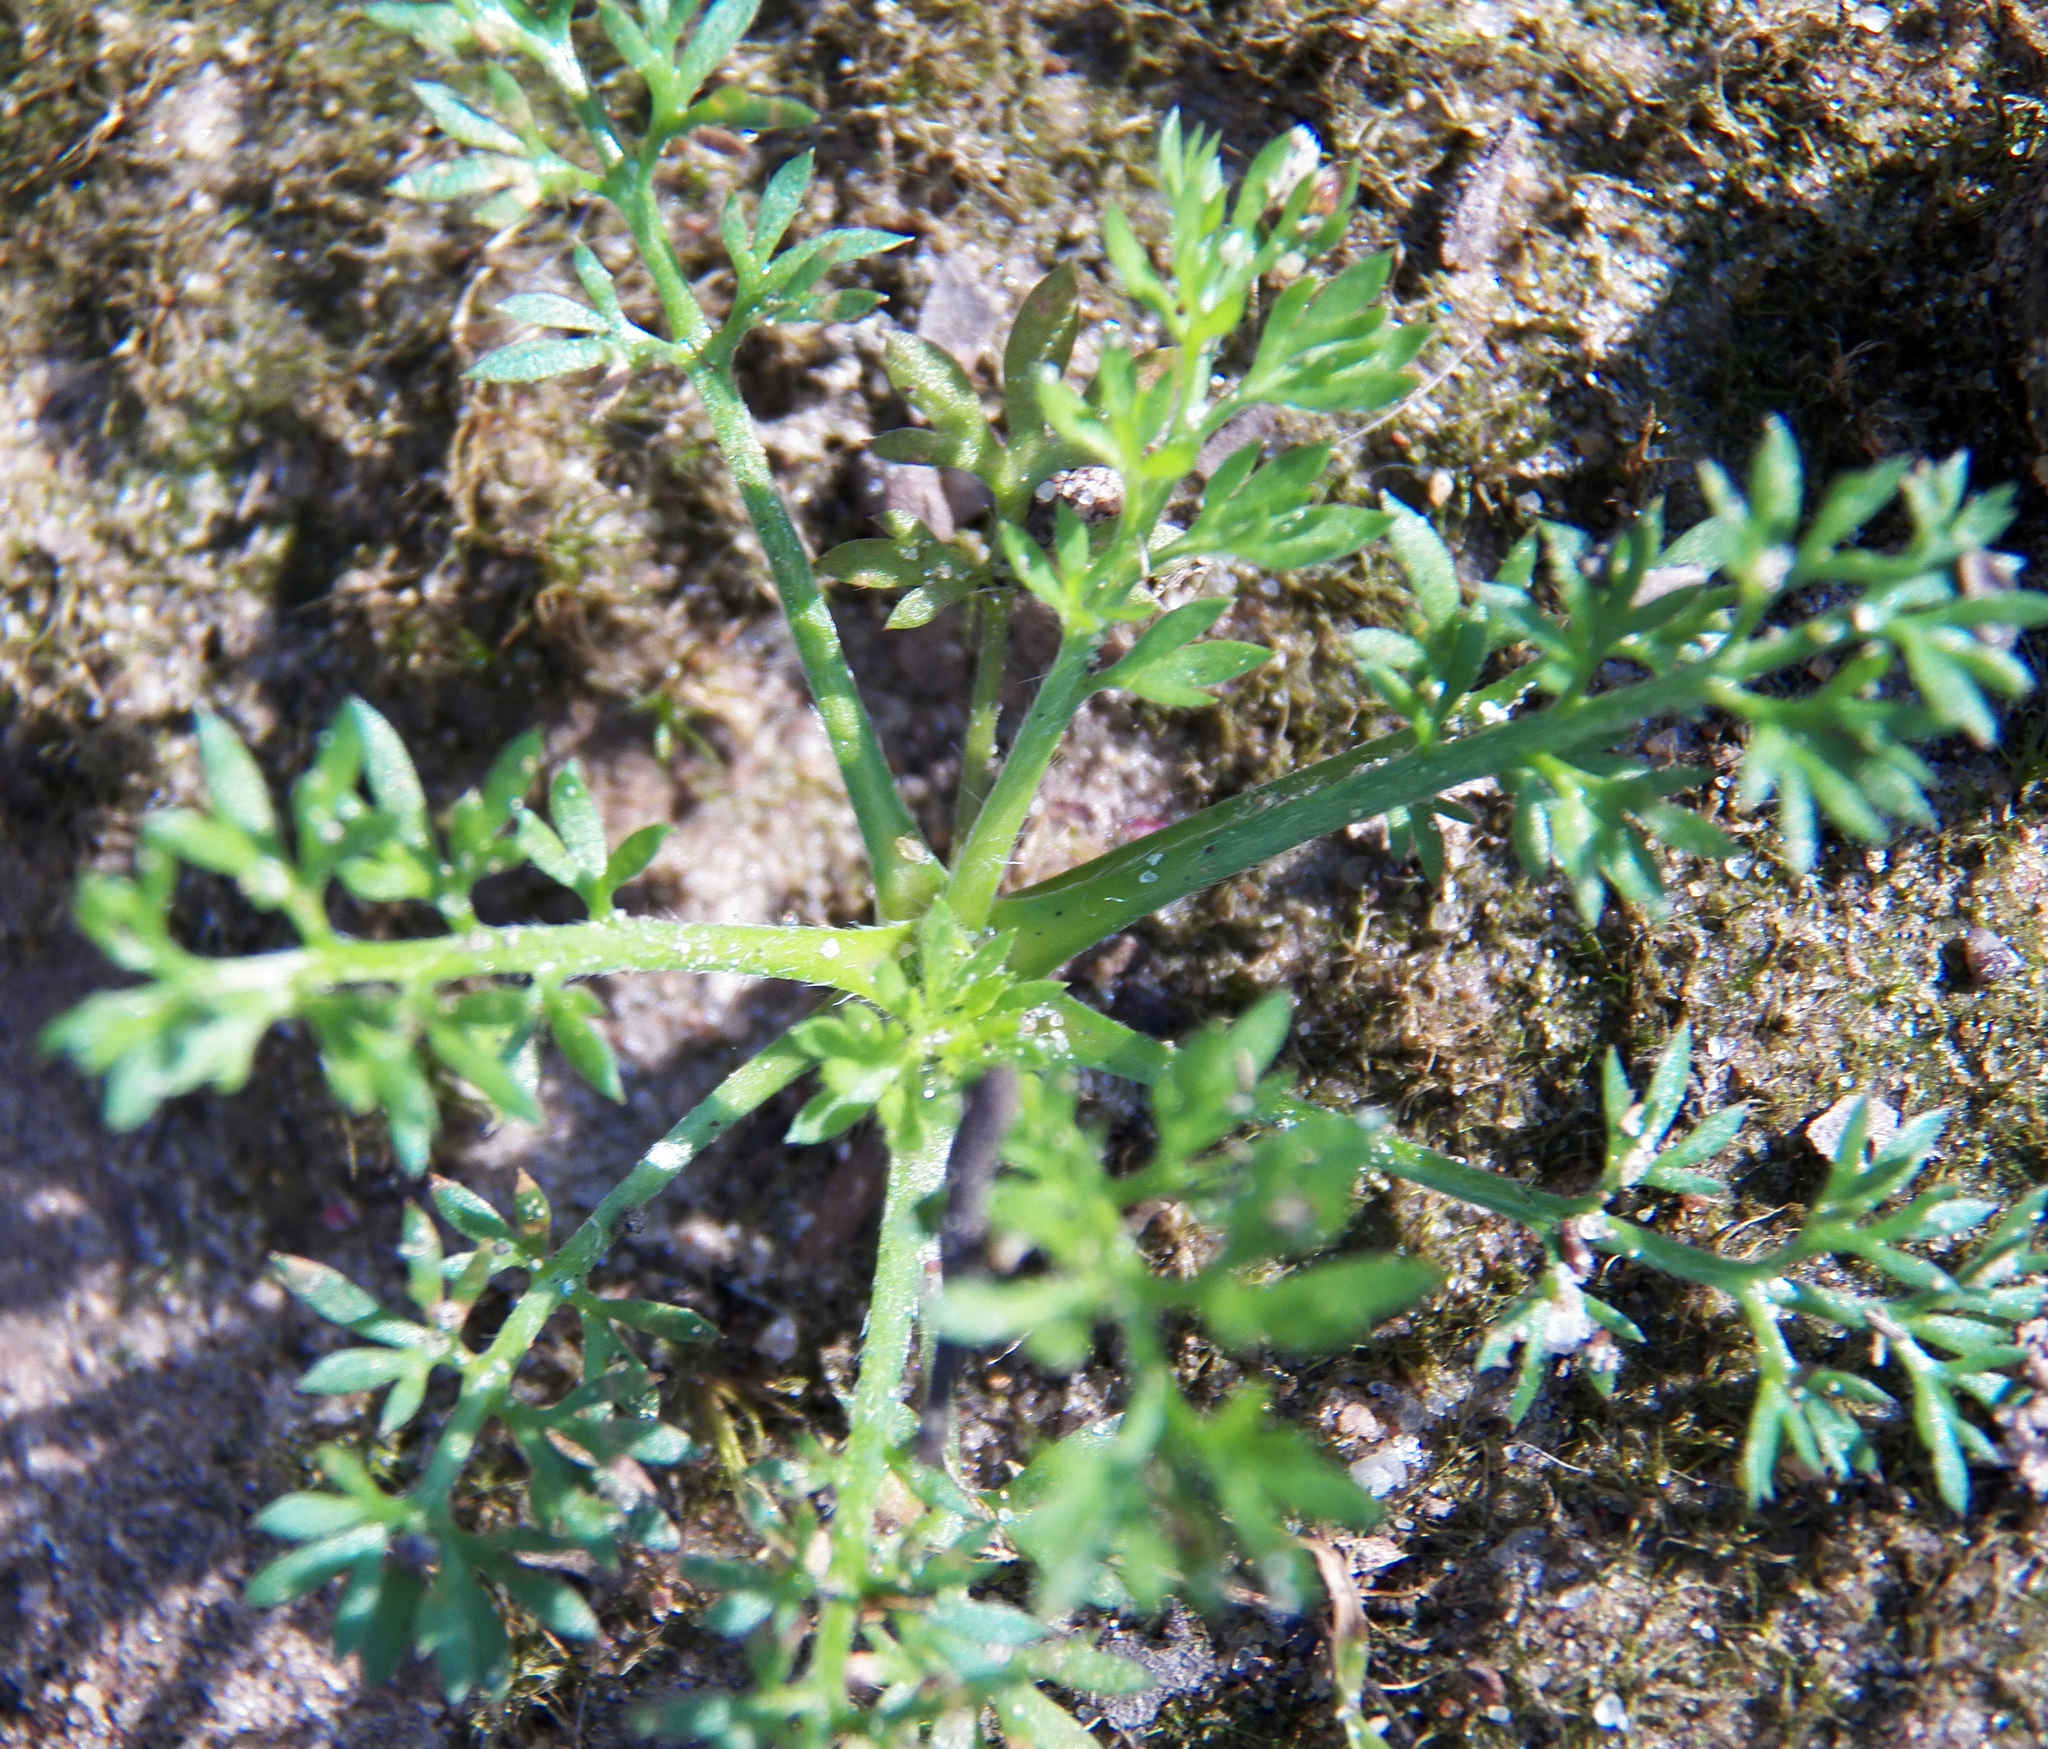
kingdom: Plantae
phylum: Tracheophyta
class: Magnoliopsida
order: Asterales
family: Asteraceae
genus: Soliva
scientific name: Soliva sessilis
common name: Field burrweed
